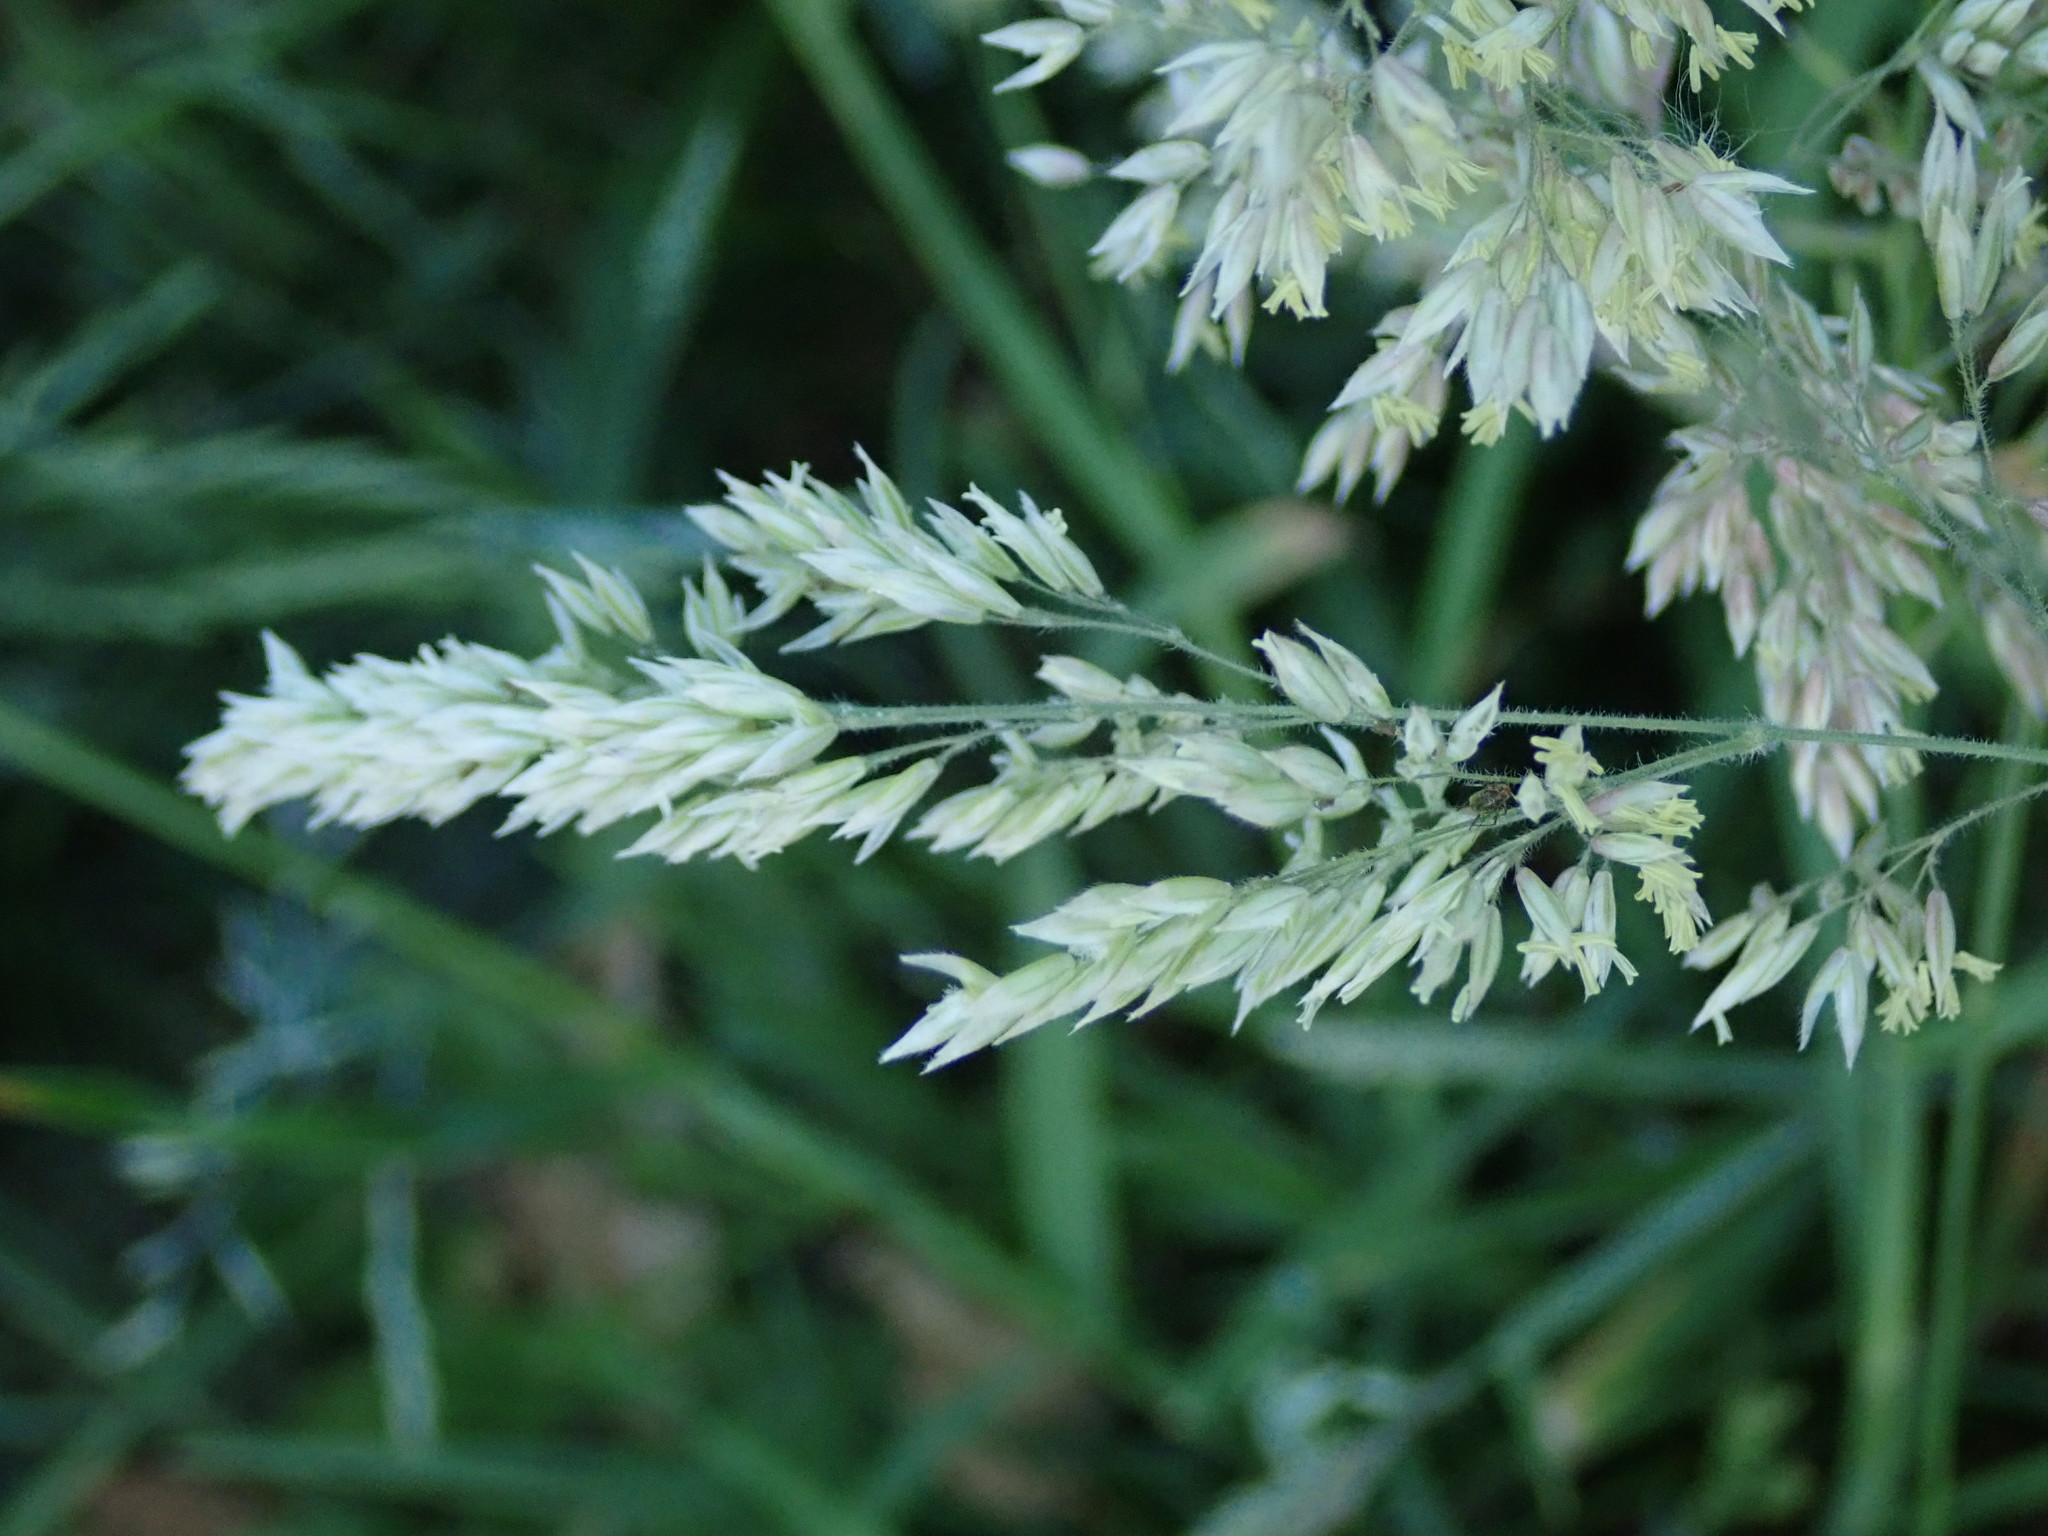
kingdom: Plantae
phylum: Tracheophyta
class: Liliopsida
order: Poales
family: Poaceae
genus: Holcus
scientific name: Holcus lanatus
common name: Yorkshire-fog
